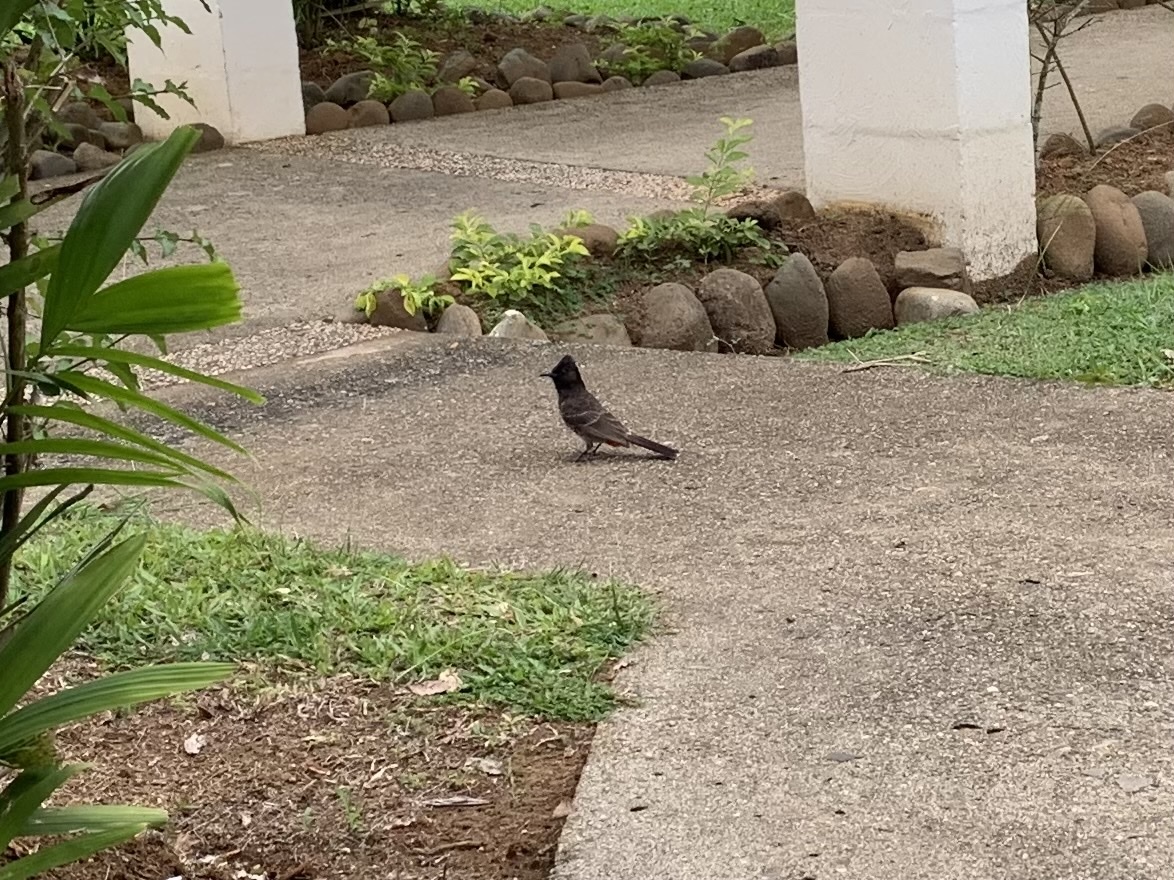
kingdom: Animalia
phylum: Chordata
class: Aves
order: Passeriformes
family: Pycnonotidae
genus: Pycnonotus
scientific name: Pycnonotus cafer
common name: Red-vented bulbul
